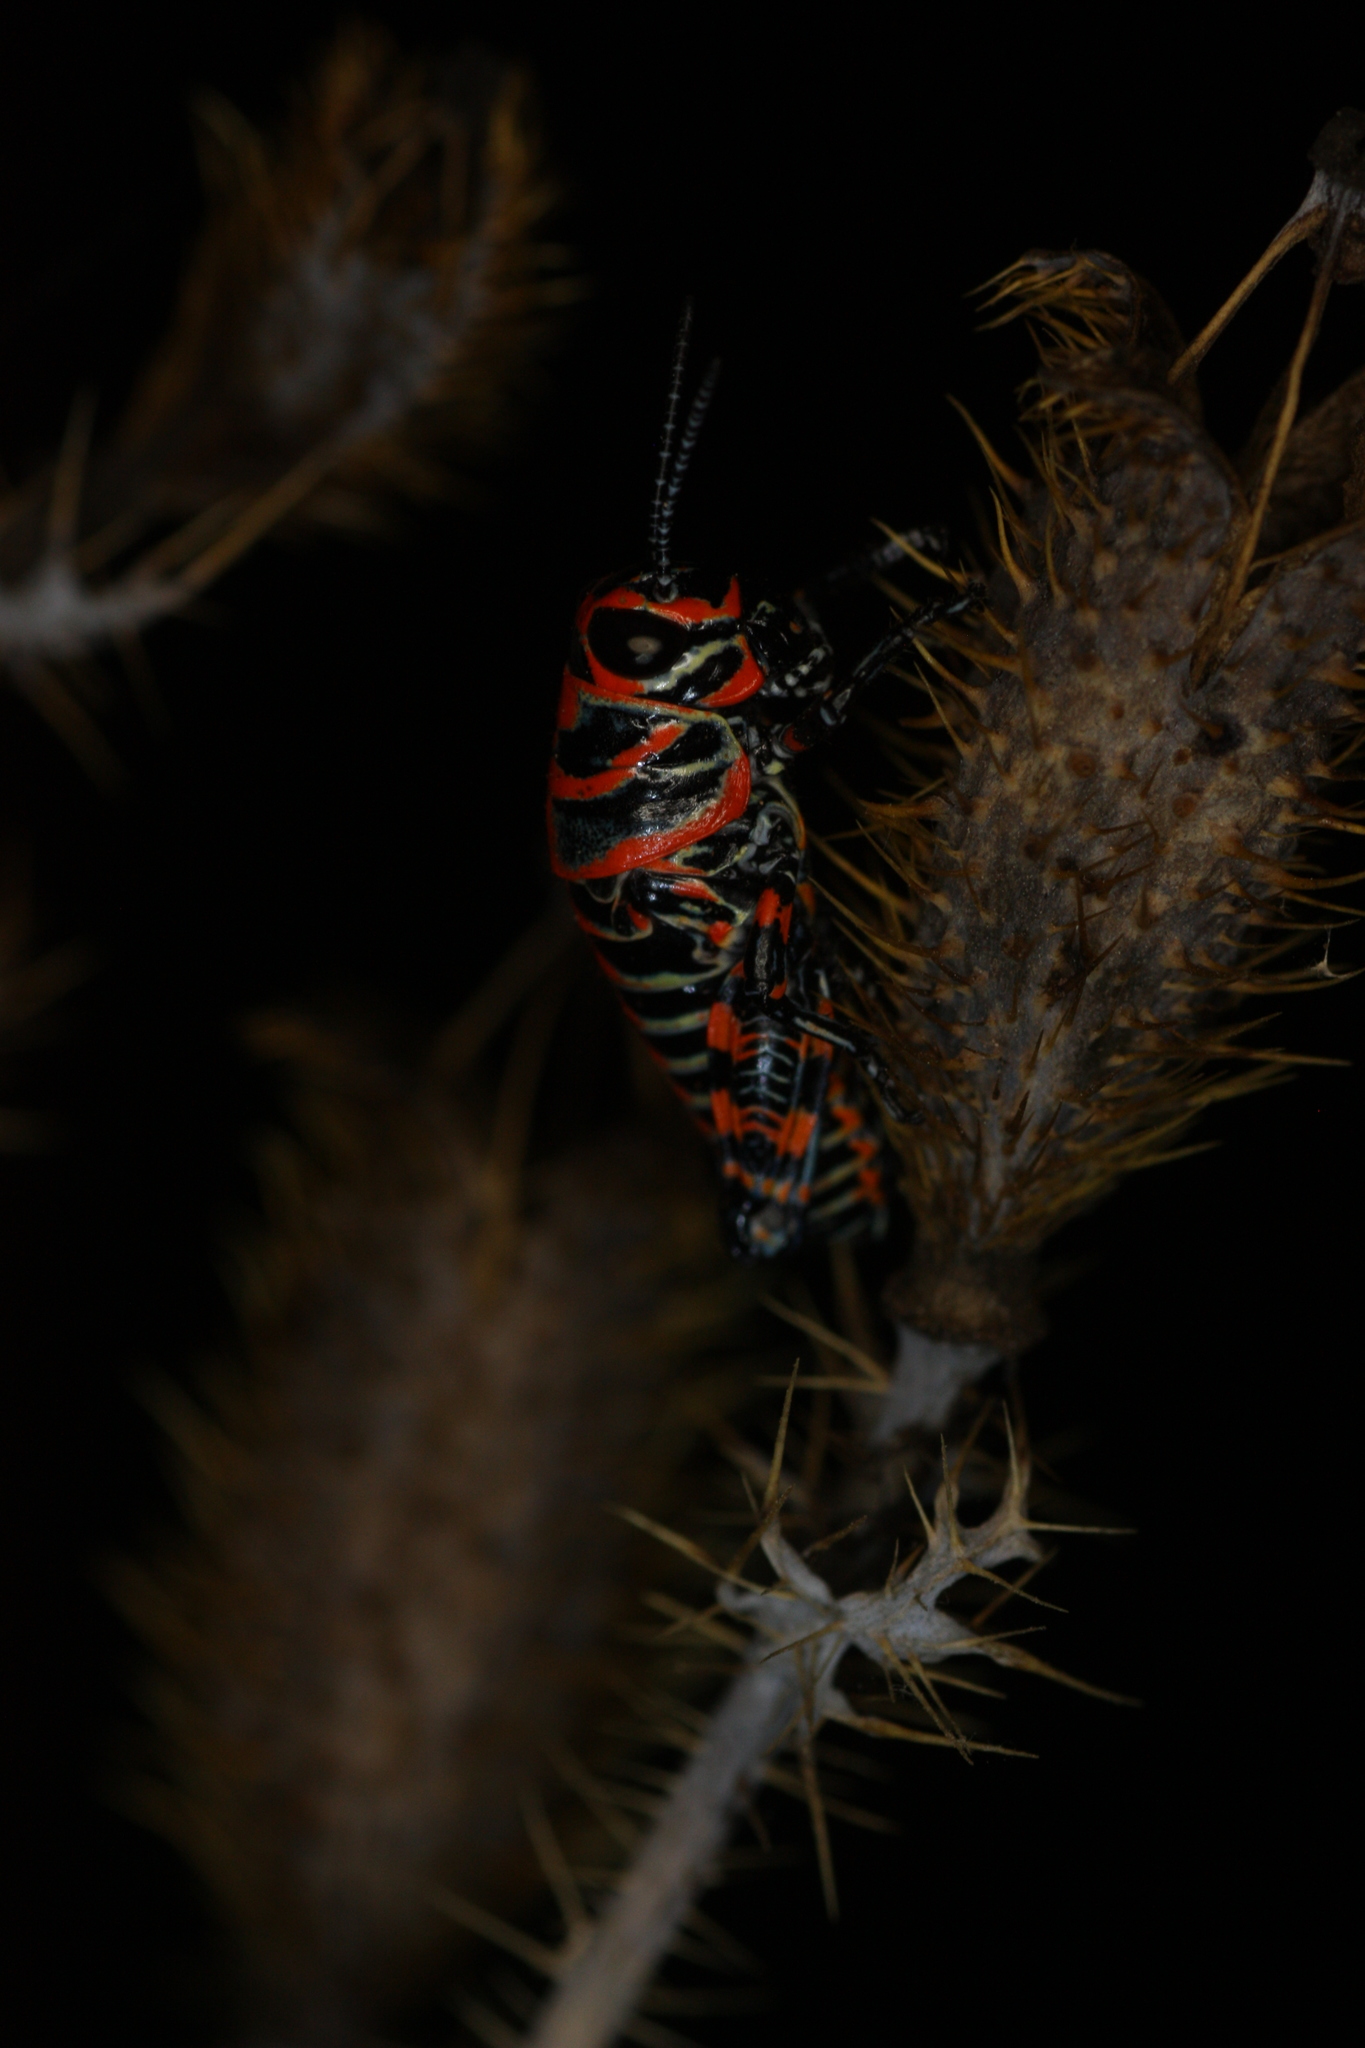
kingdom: Animalia
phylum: Arthropoda
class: Insecta
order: Orthoptera
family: Acrididae
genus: Dactylotum
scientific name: Dactylotum bicolor
